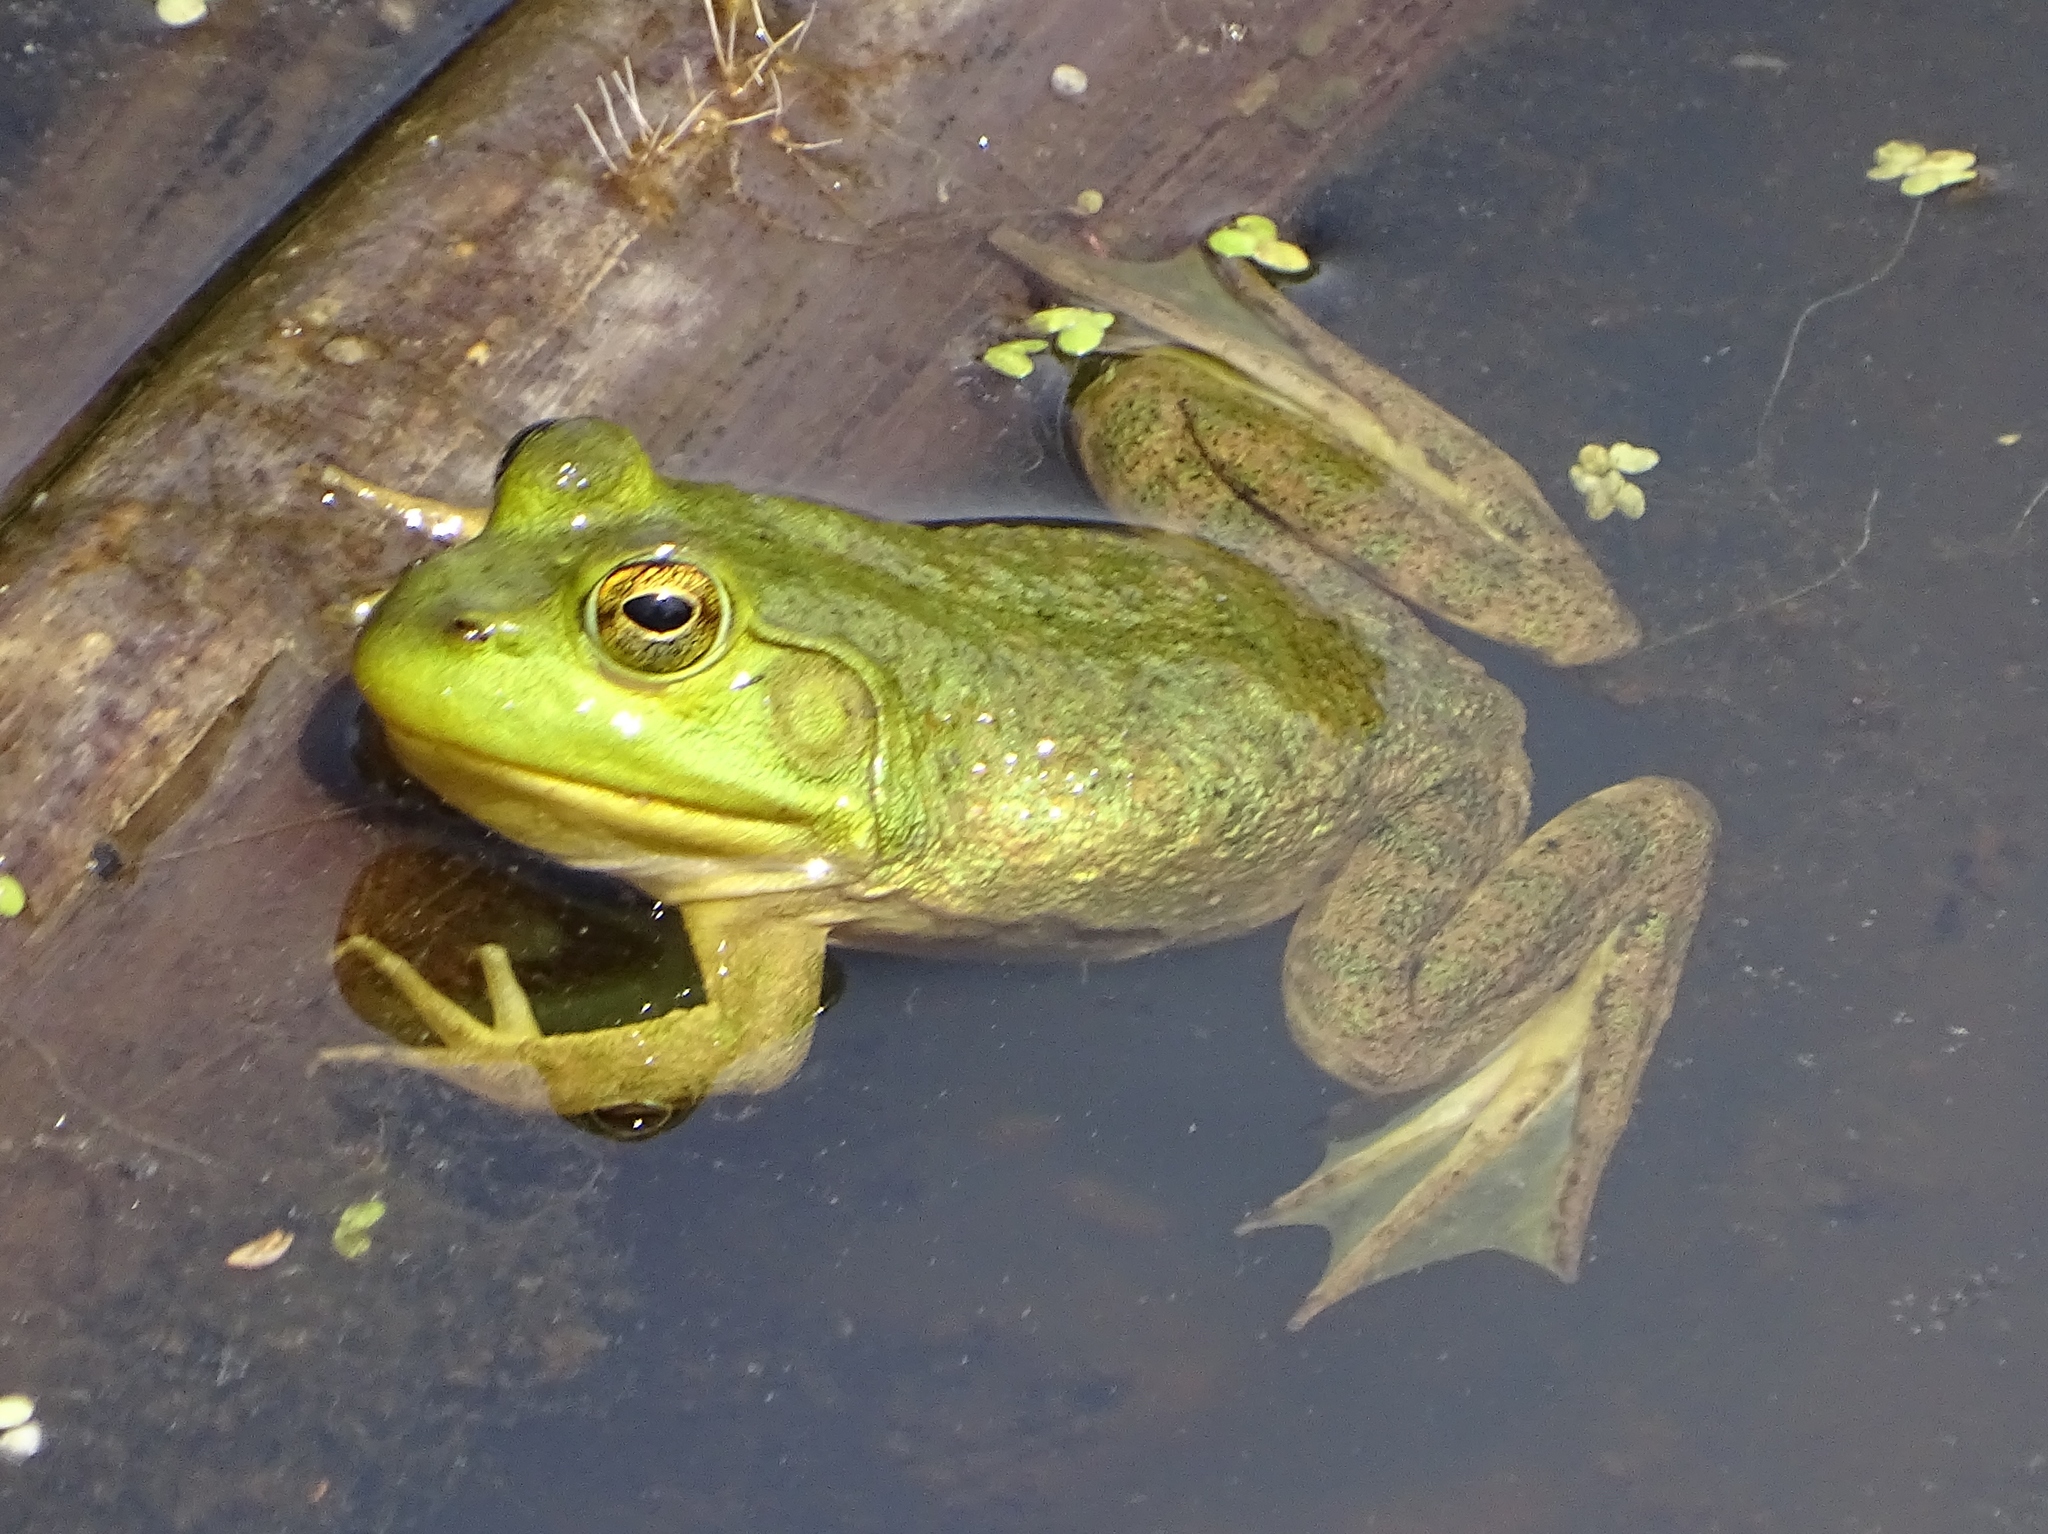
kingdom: Animalia
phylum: Chordata
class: Amphibia
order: Anura
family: Ranidae
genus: Lithobates
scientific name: Lithobates catesbeianus
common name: American bullfrog
